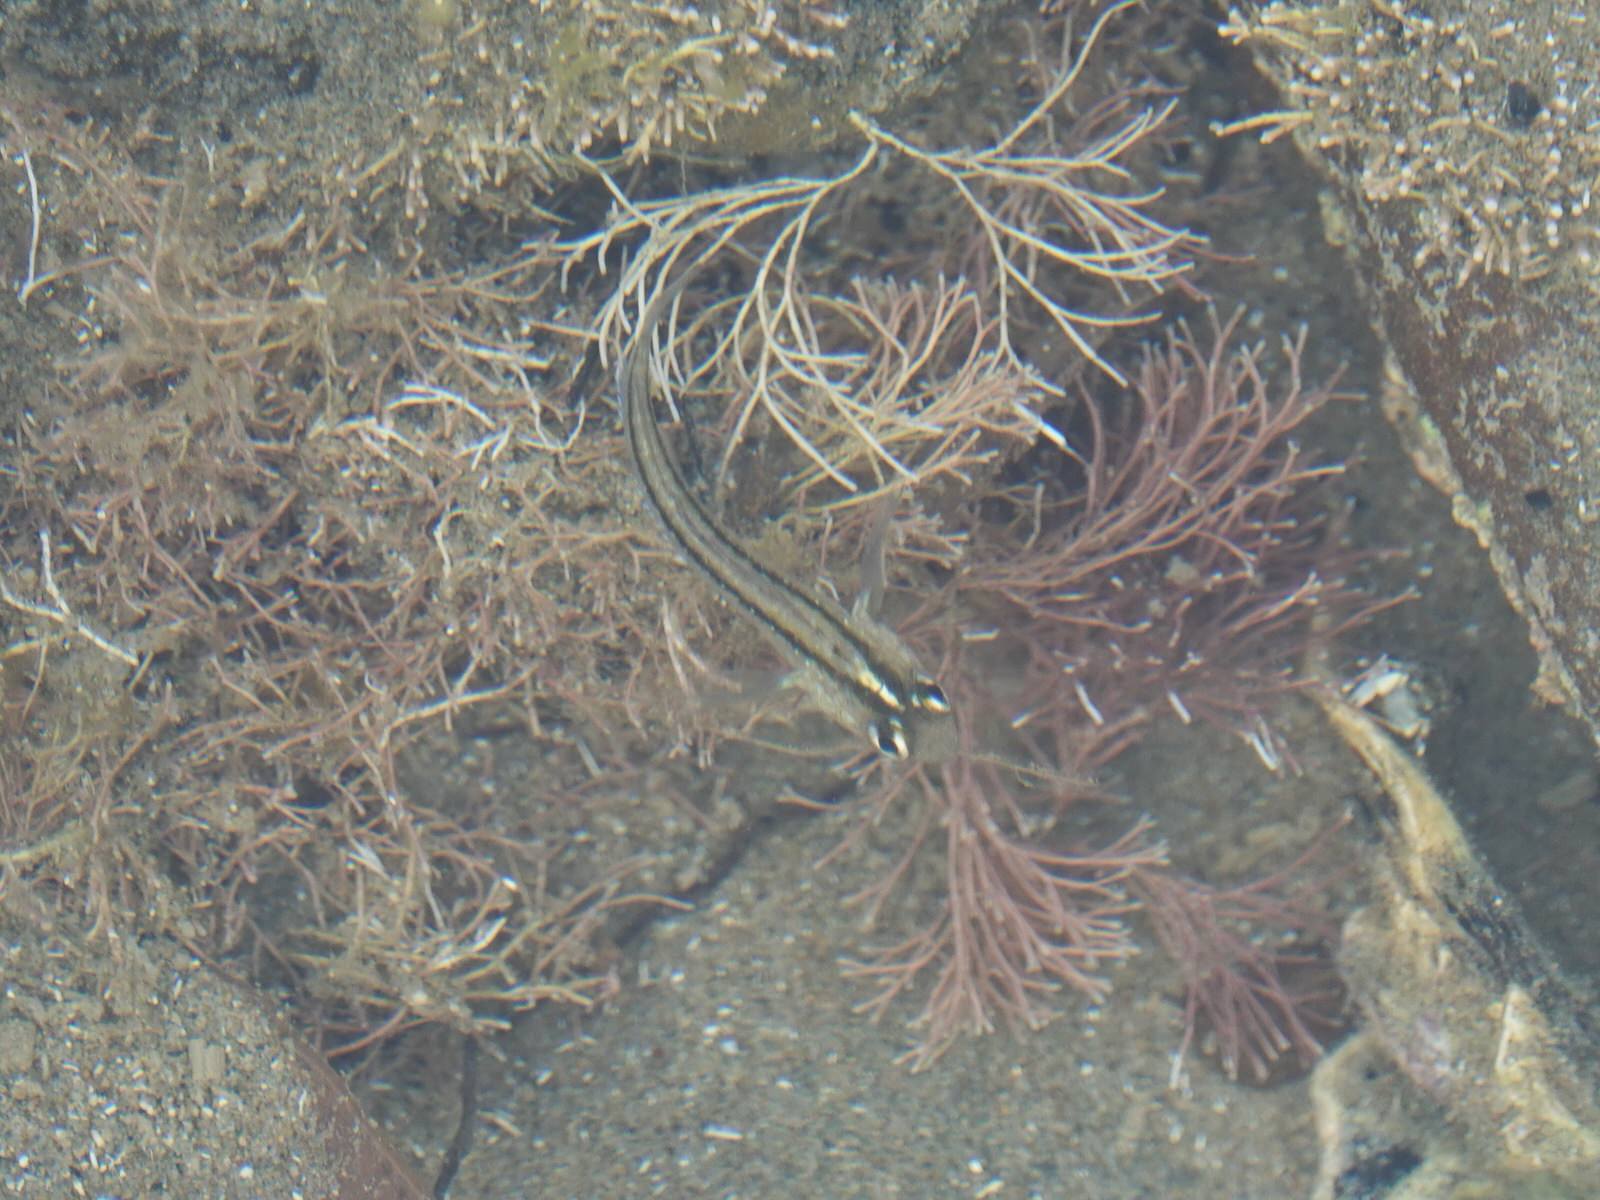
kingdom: Animalia
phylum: Chordata
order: Perciformes
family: Tripterygiidae
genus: Forsterygion
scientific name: Forsterygion lapillum
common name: Common triplefin
